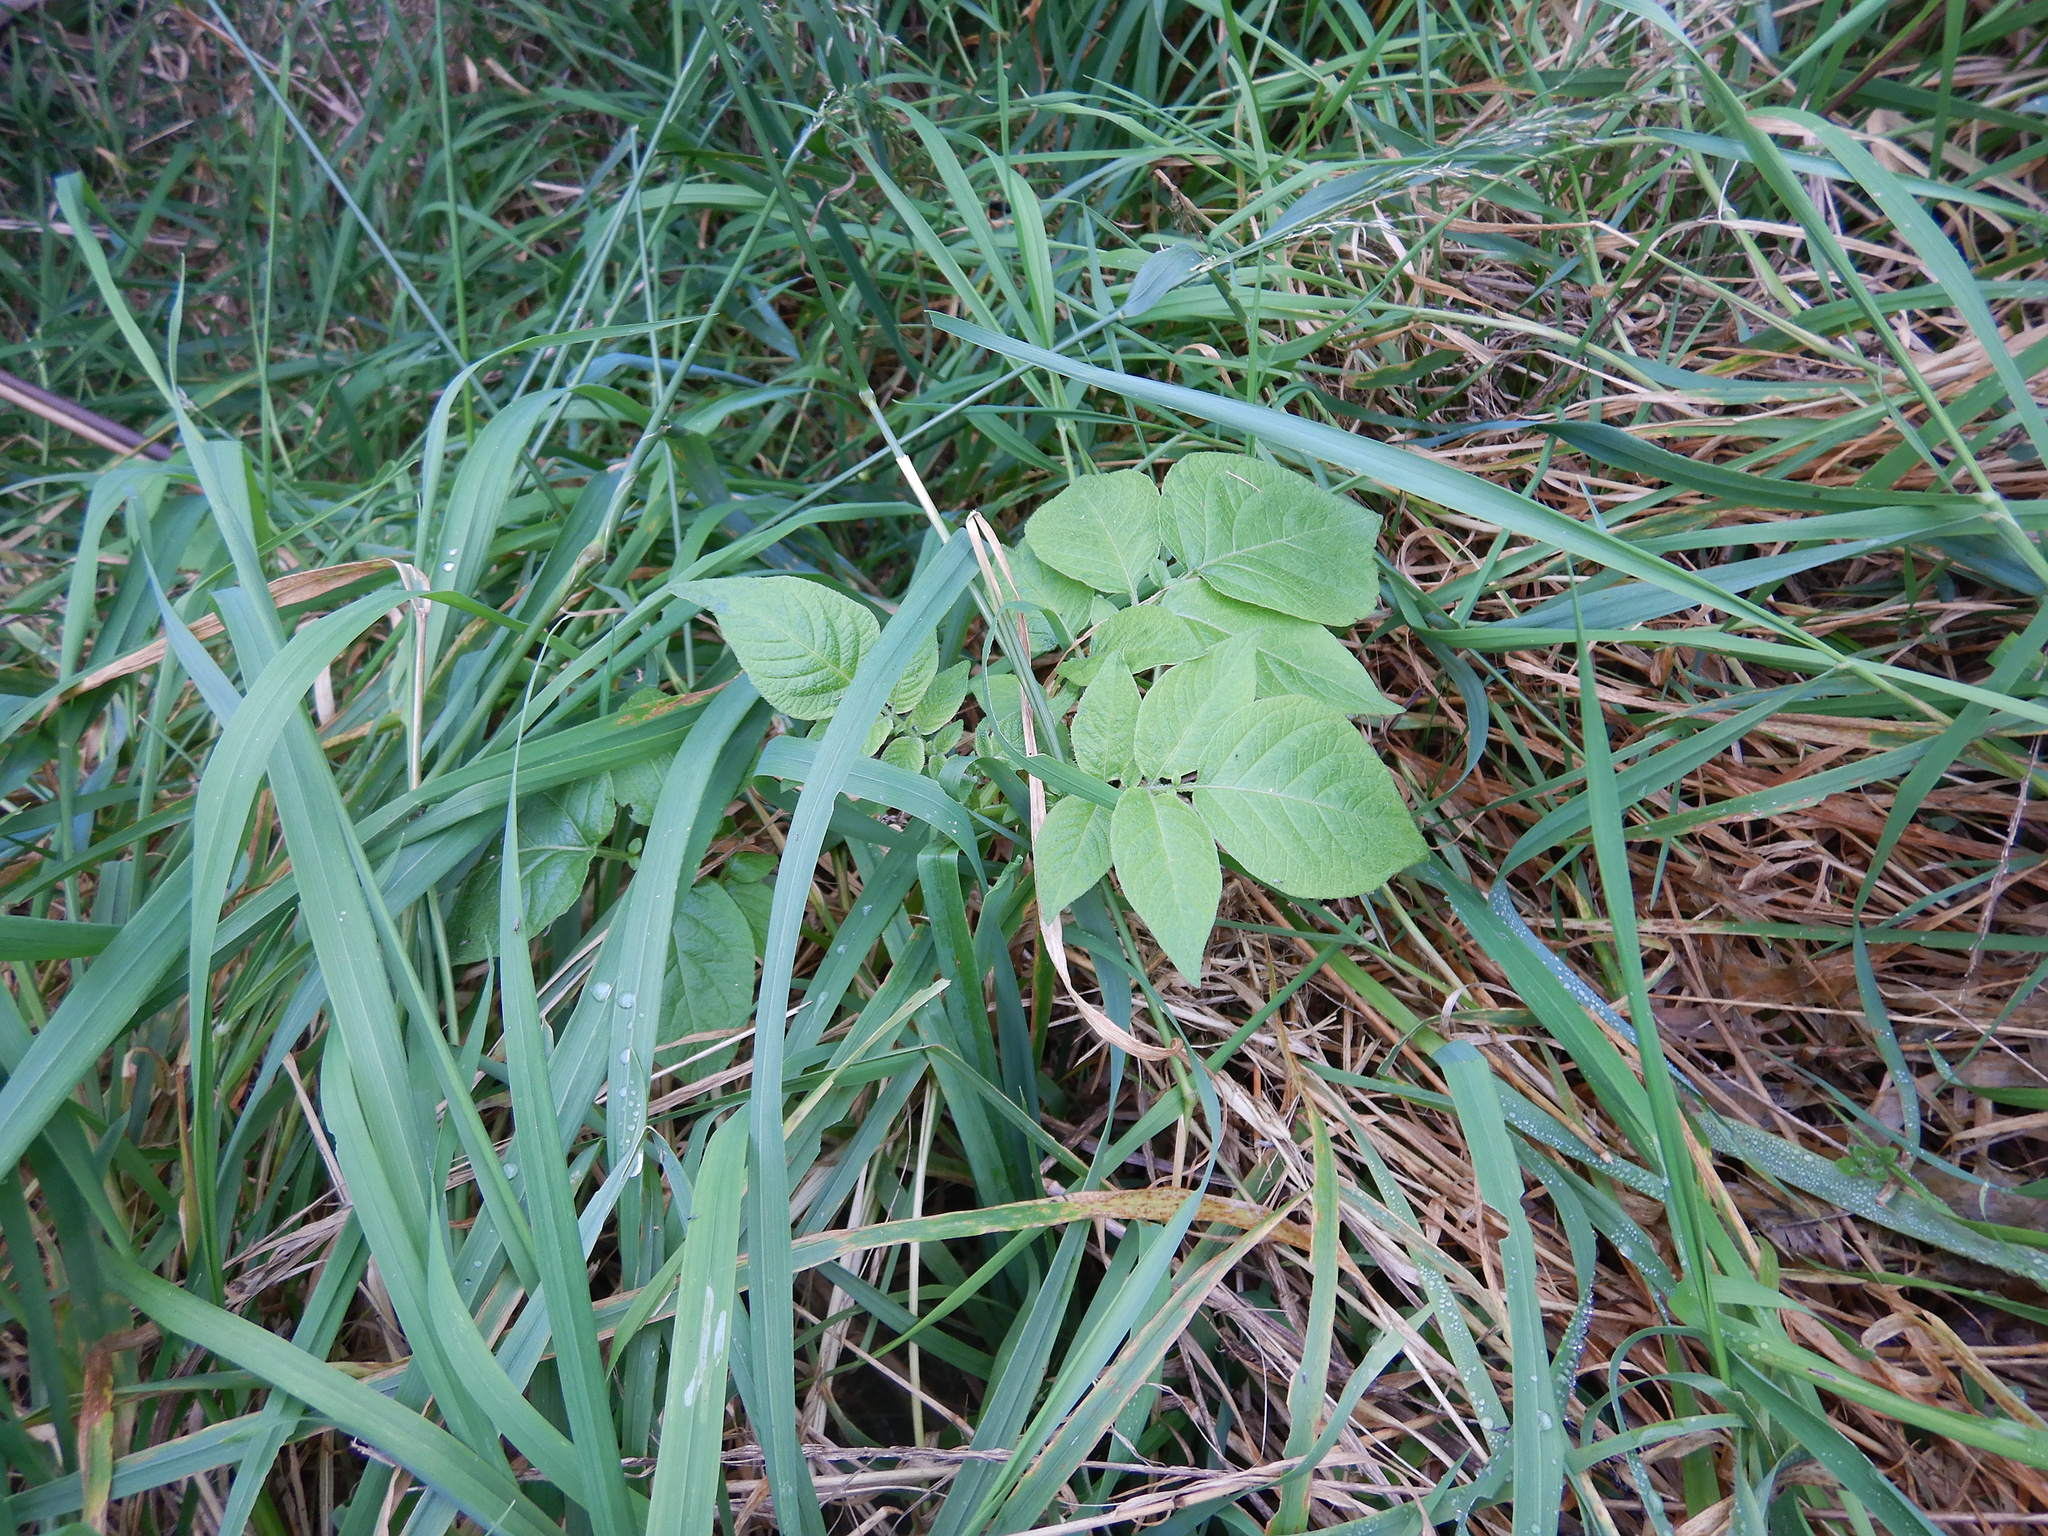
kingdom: Plantae
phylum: Tracheophyta
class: Magnoliopsida
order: Solanales
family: Solanaceae
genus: Solanum
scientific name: Solanum tuberosum
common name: Potato
